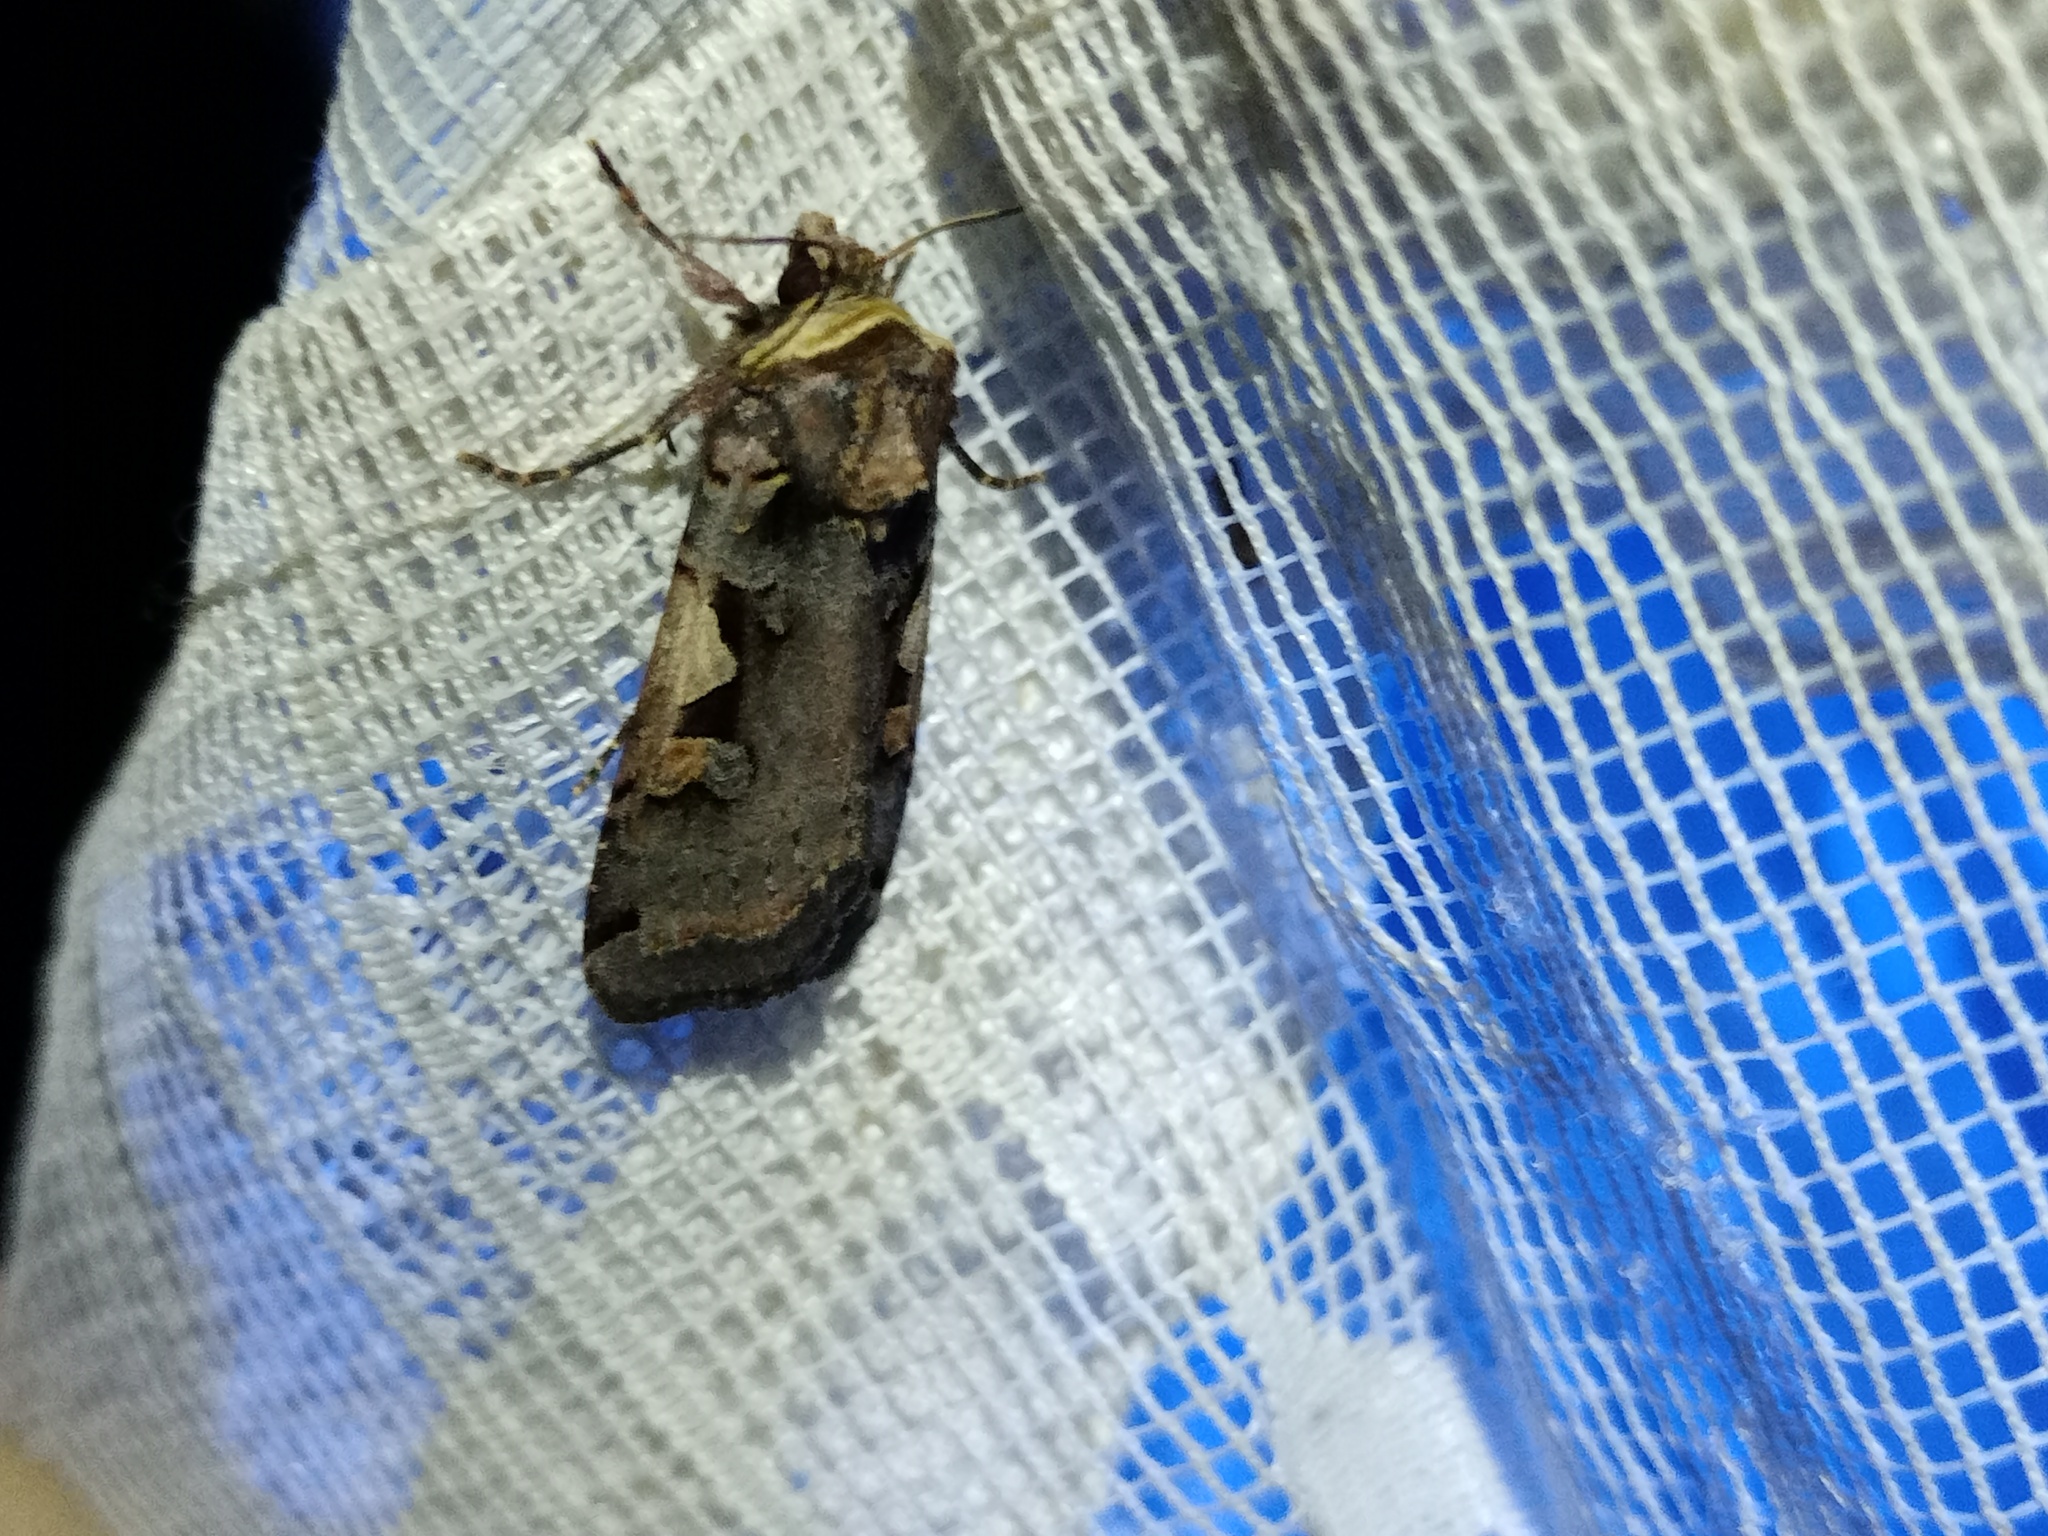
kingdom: Animalia
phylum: Arthropoda
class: Insecta
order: Lepidoptera
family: Noctuidae
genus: Xestia
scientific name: Xestia c-nigrum
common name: Setaceous hebrew character
